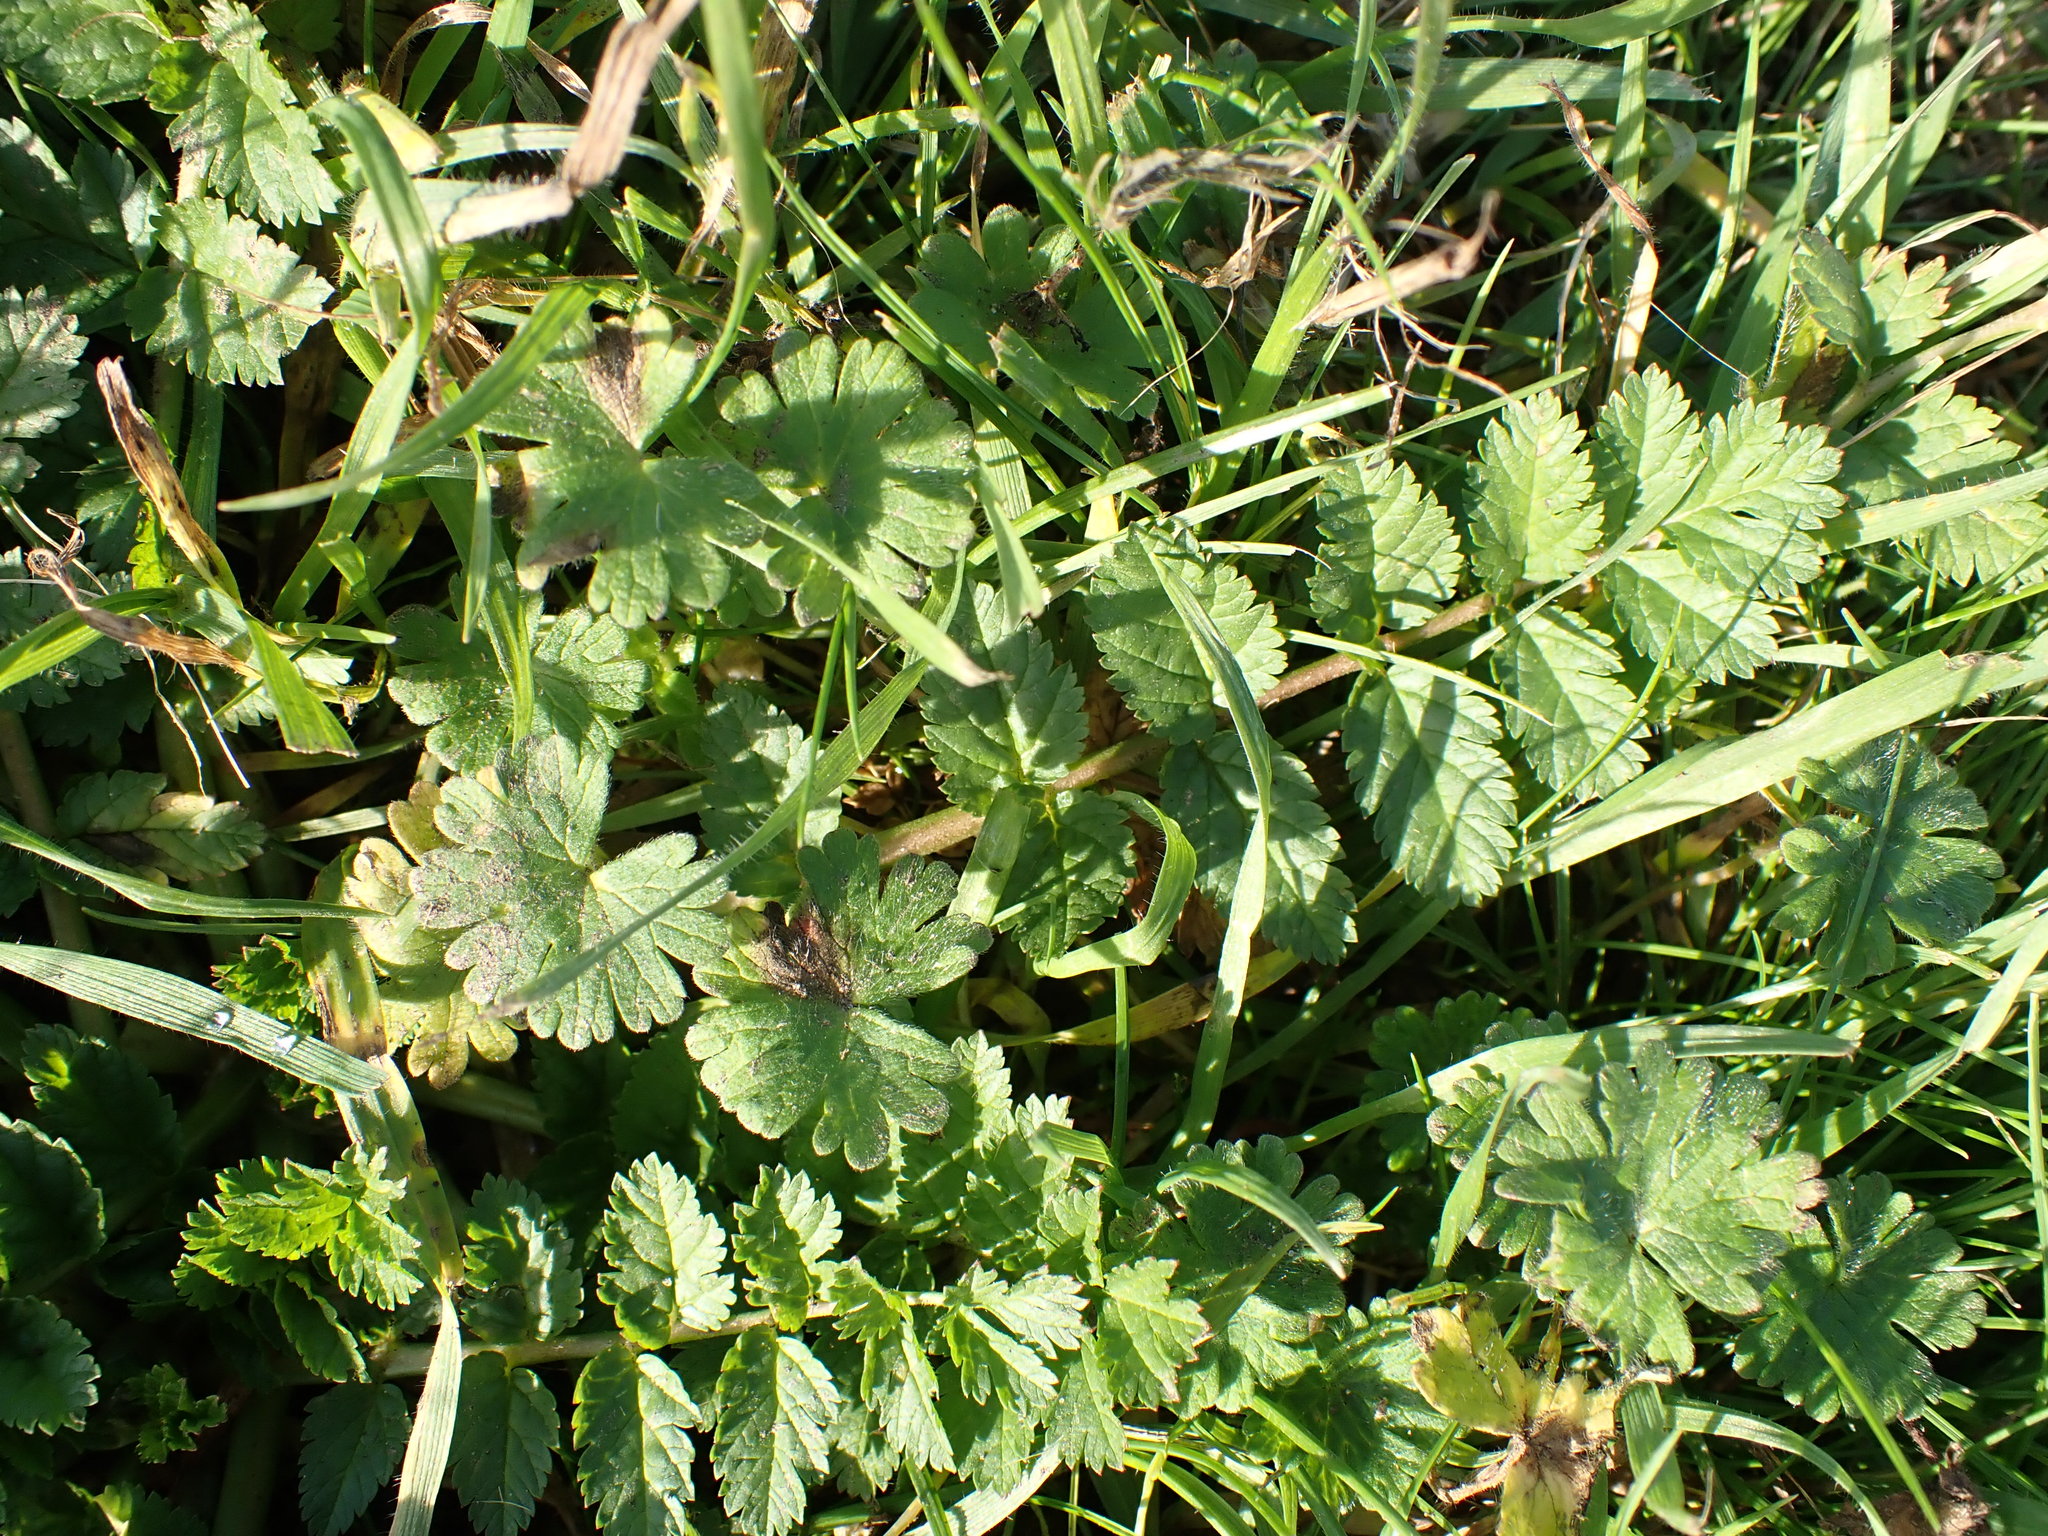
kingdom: Plantae
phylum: Tracheophyta
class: Magnoliopsida
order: Geraniales
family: Geraniaceae
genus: Erodium
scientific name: Erodium moschatum
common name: Musk stork's-bill
